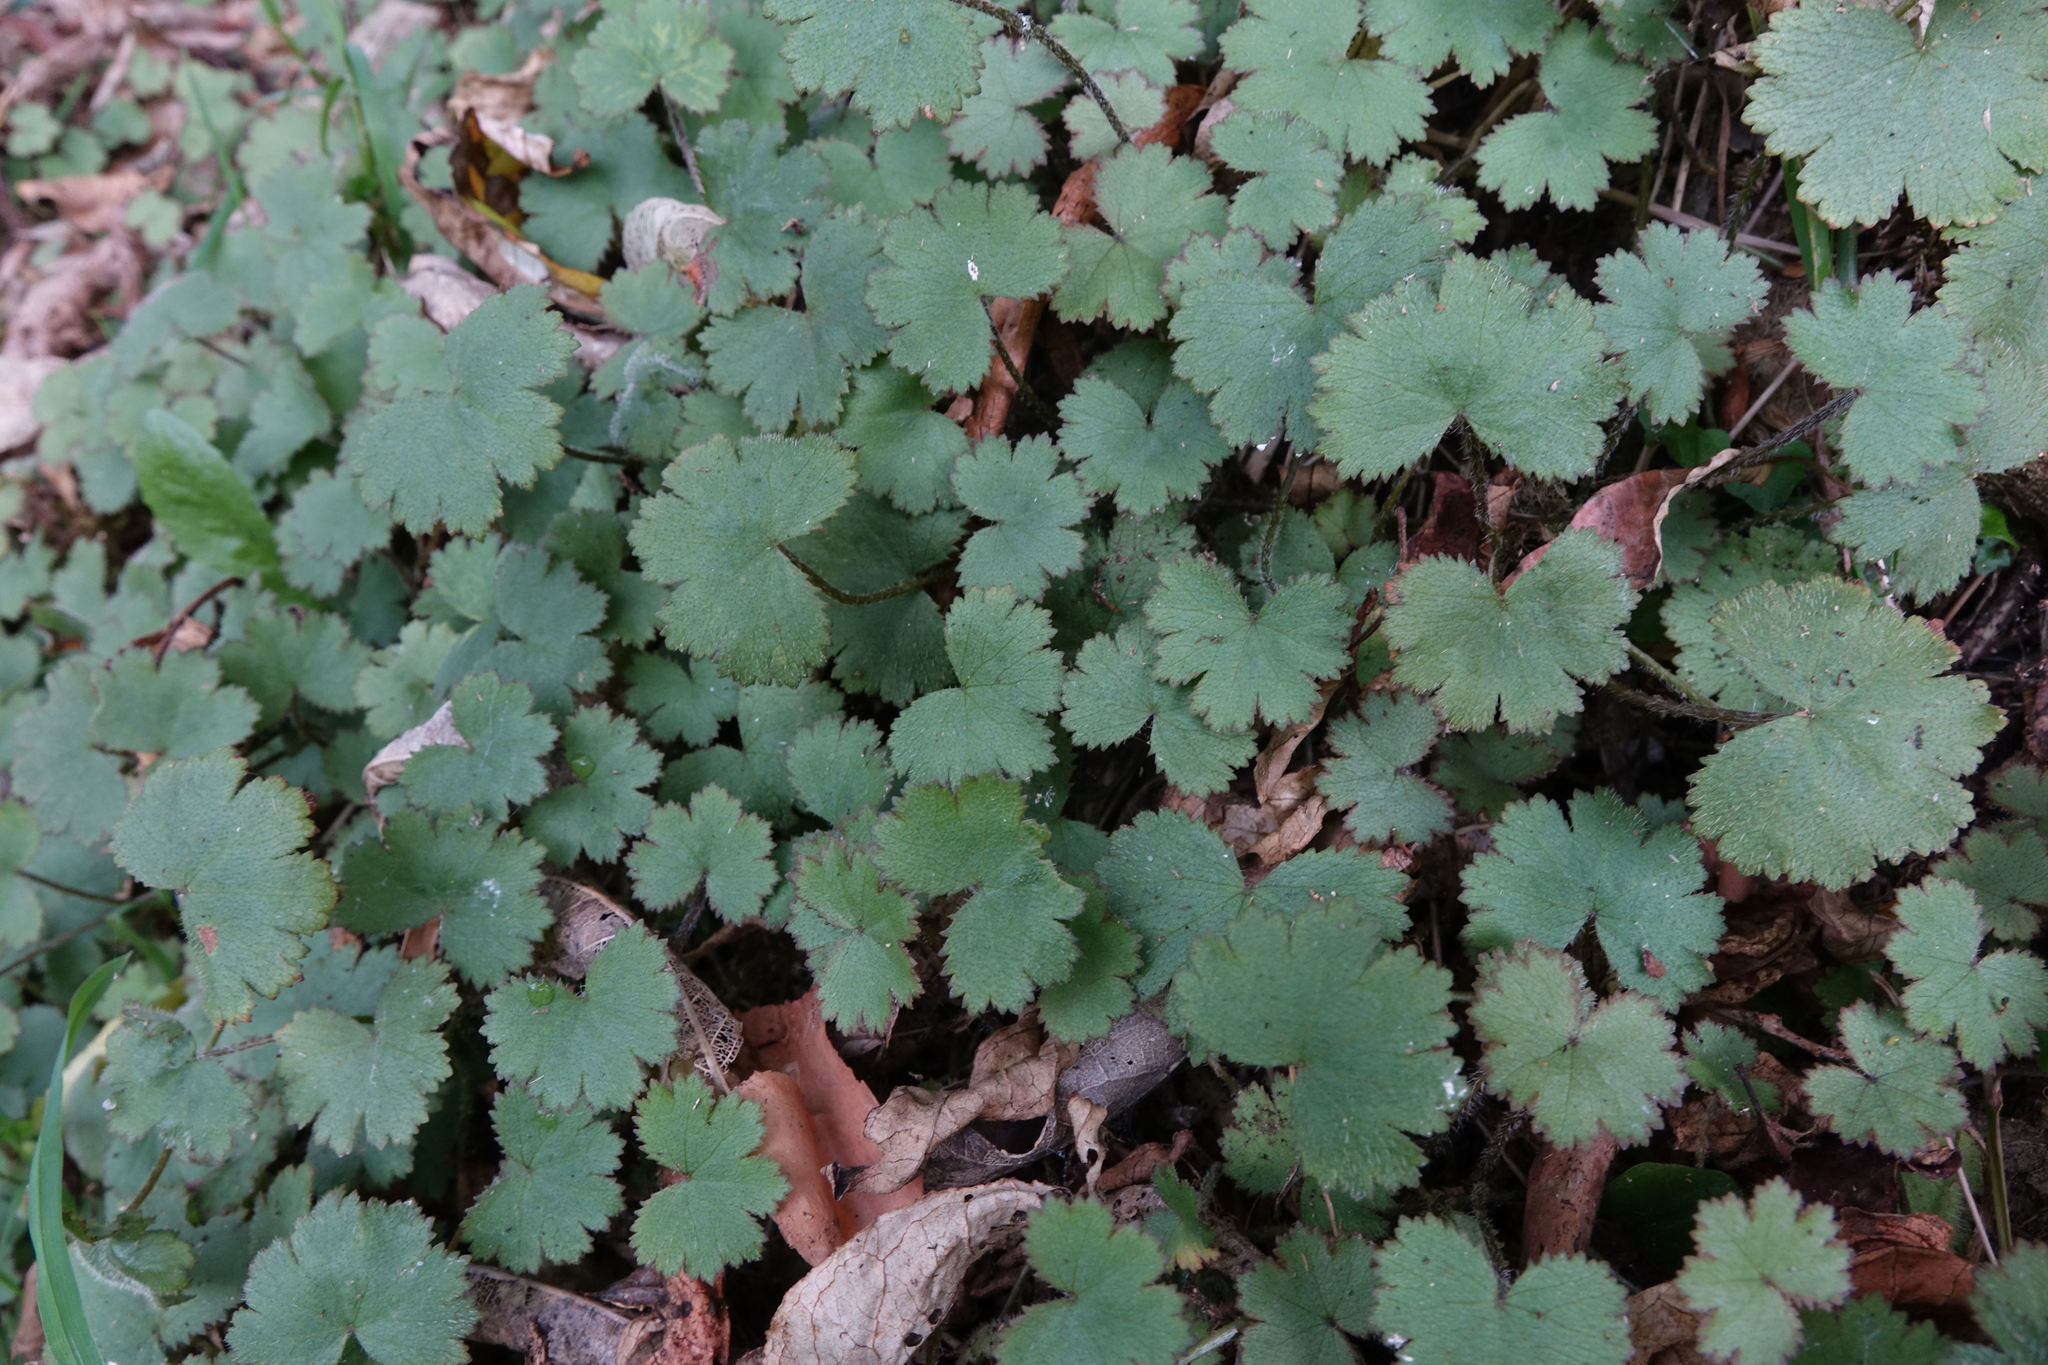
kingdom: Plantae
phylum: Tracheophyta
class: Magnoliopsida
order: Apiales
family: Araliaceae
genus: Hydrocotyle
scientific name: Hydrocotyle moschata
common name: Hairy pennywort
